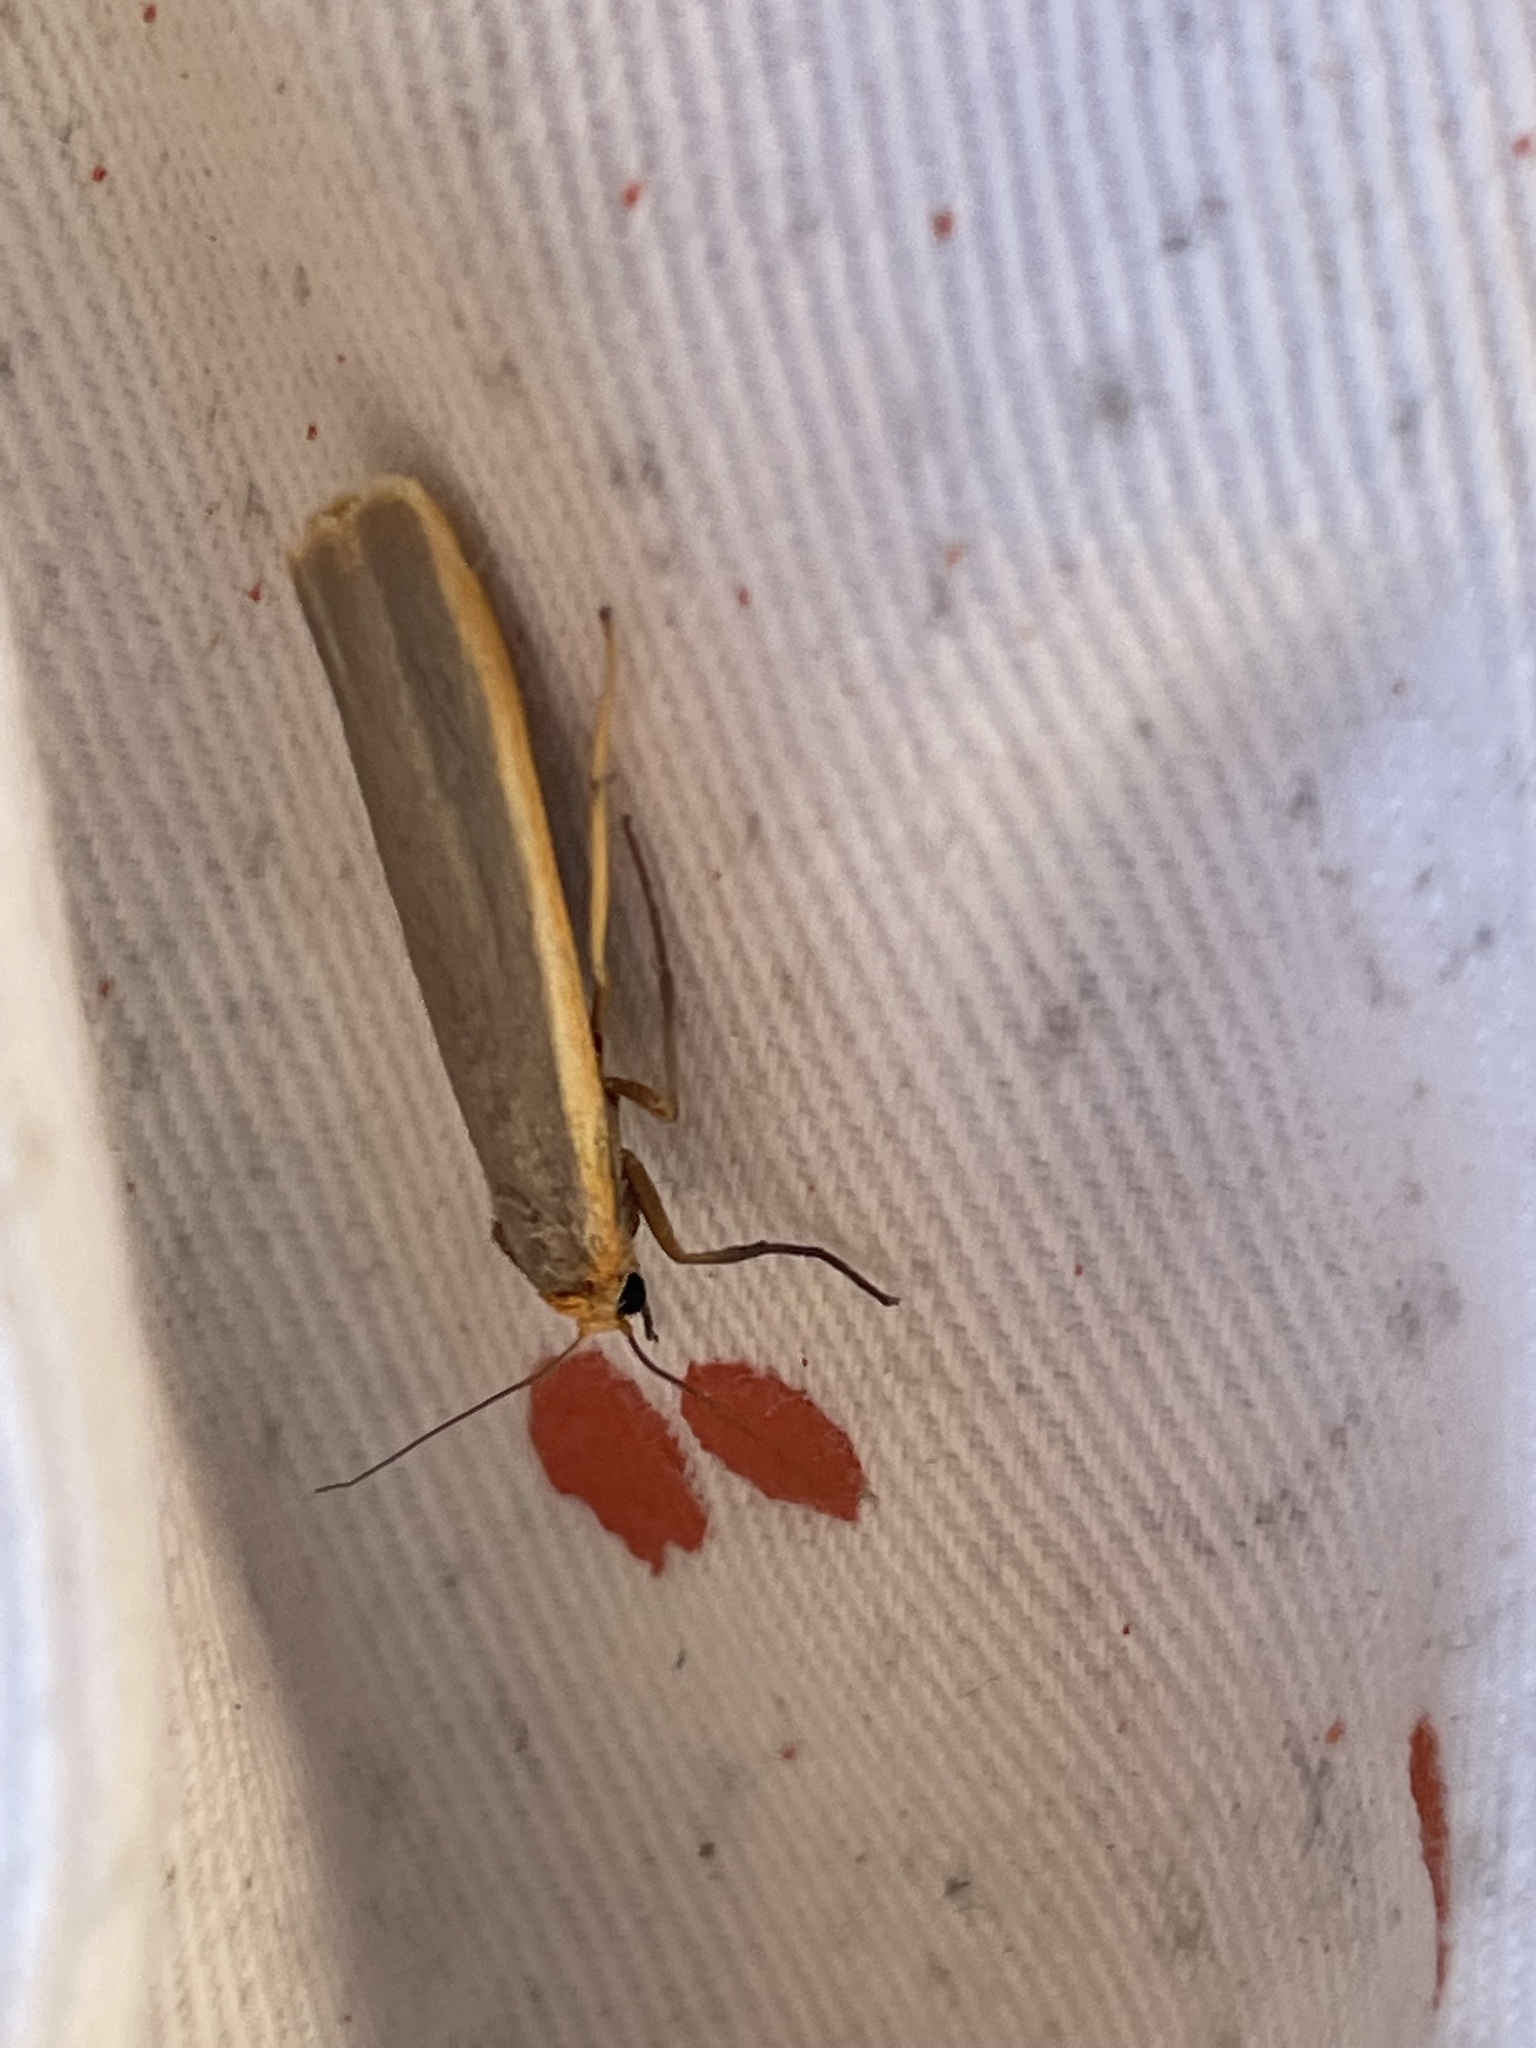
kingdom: Animalia
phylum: Arthropoda
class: Insecta
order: Lepidoptera
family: Erebidae
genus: Nyea
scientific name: Nyea lurideola
